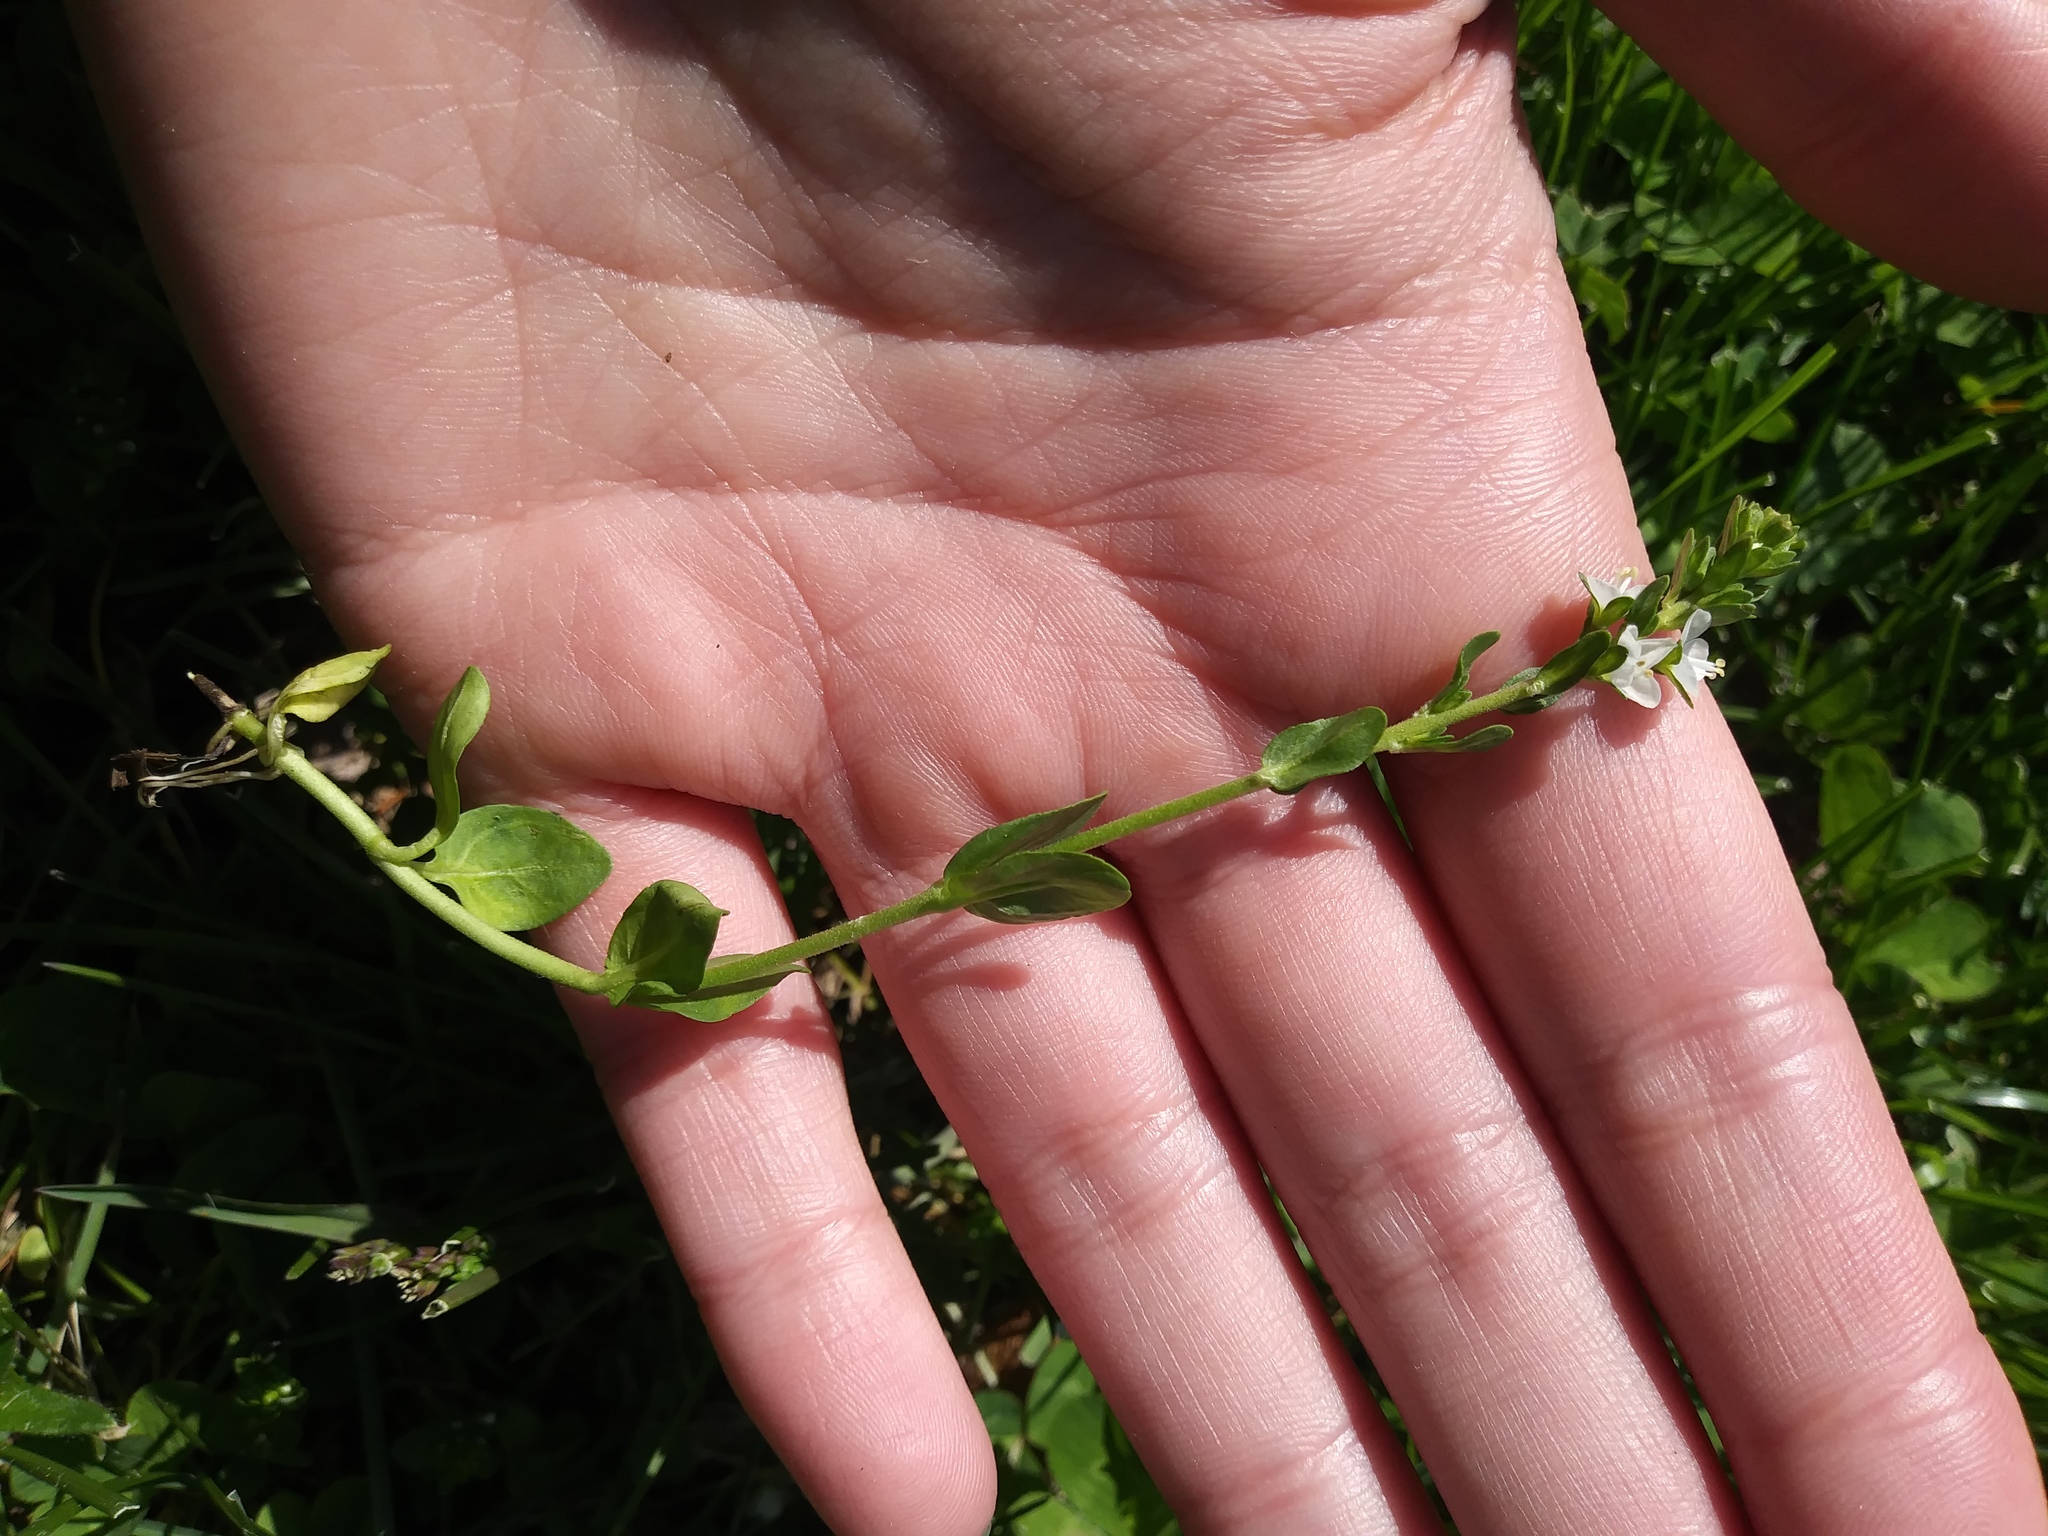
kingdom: Plantae
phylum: Tracheophyta
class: Magnoliopsida
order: Lamiales
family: Plantaginaceae
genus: Veronica
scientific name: Veronica serpyllifolia
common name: Thyme-leaved speedwell
